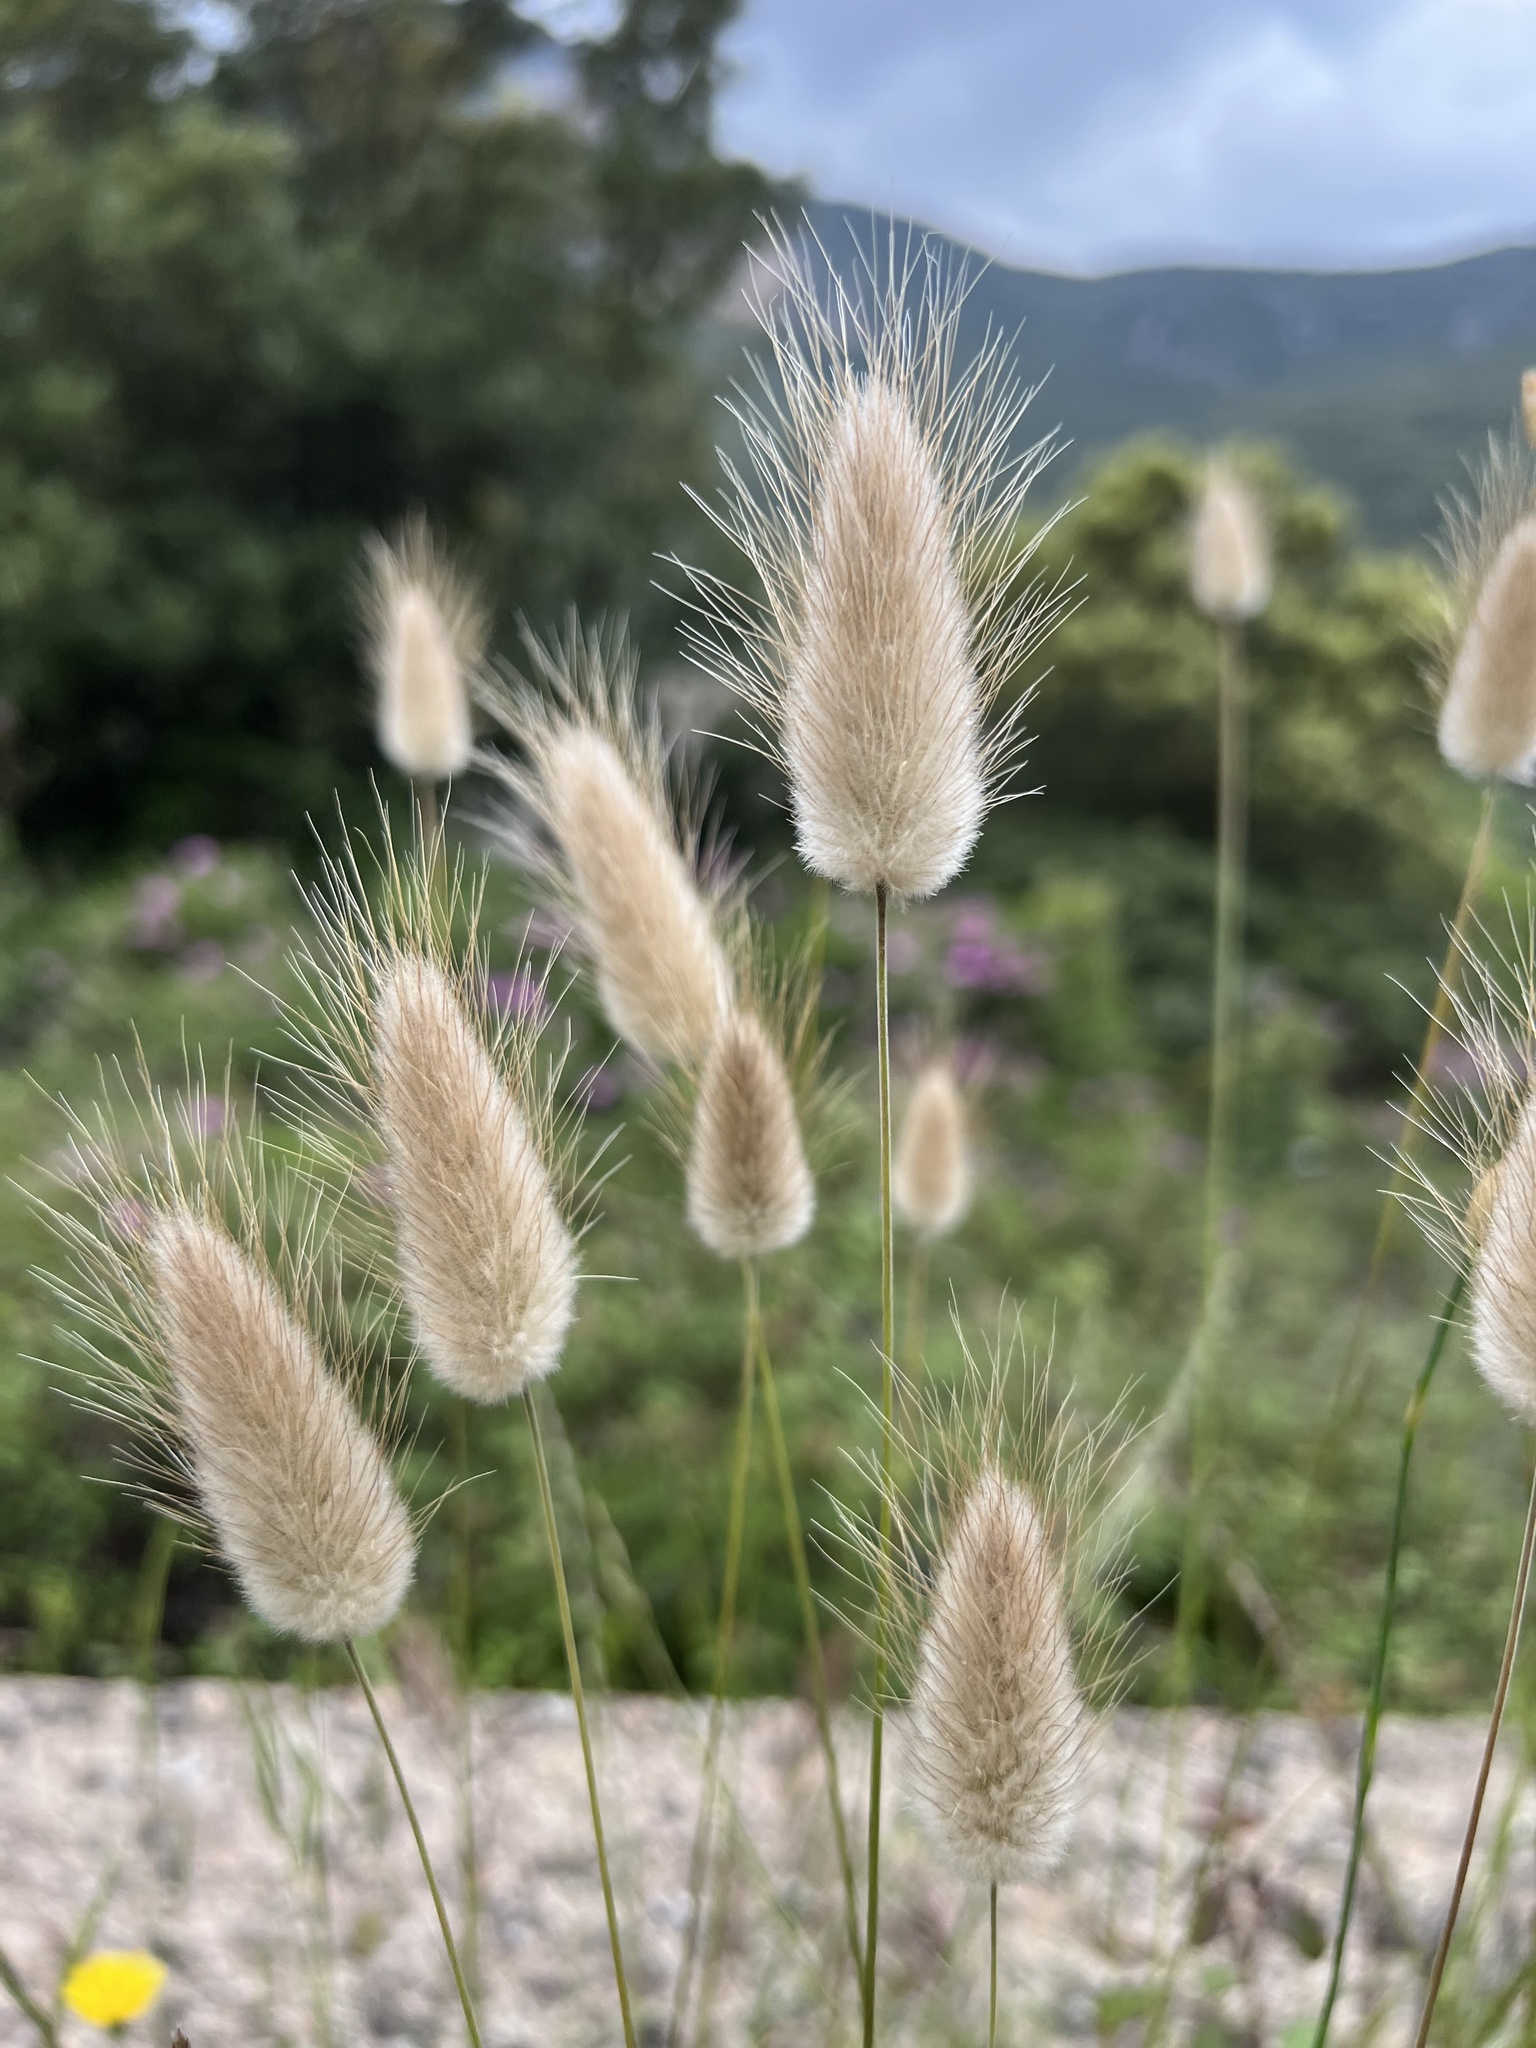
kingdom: Plantae
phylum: Tracheophyta
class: Liliopsida
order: Poales
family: Poaceae
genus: Lagurus
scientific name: Lagurus ovatus
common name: Hare's-tail
